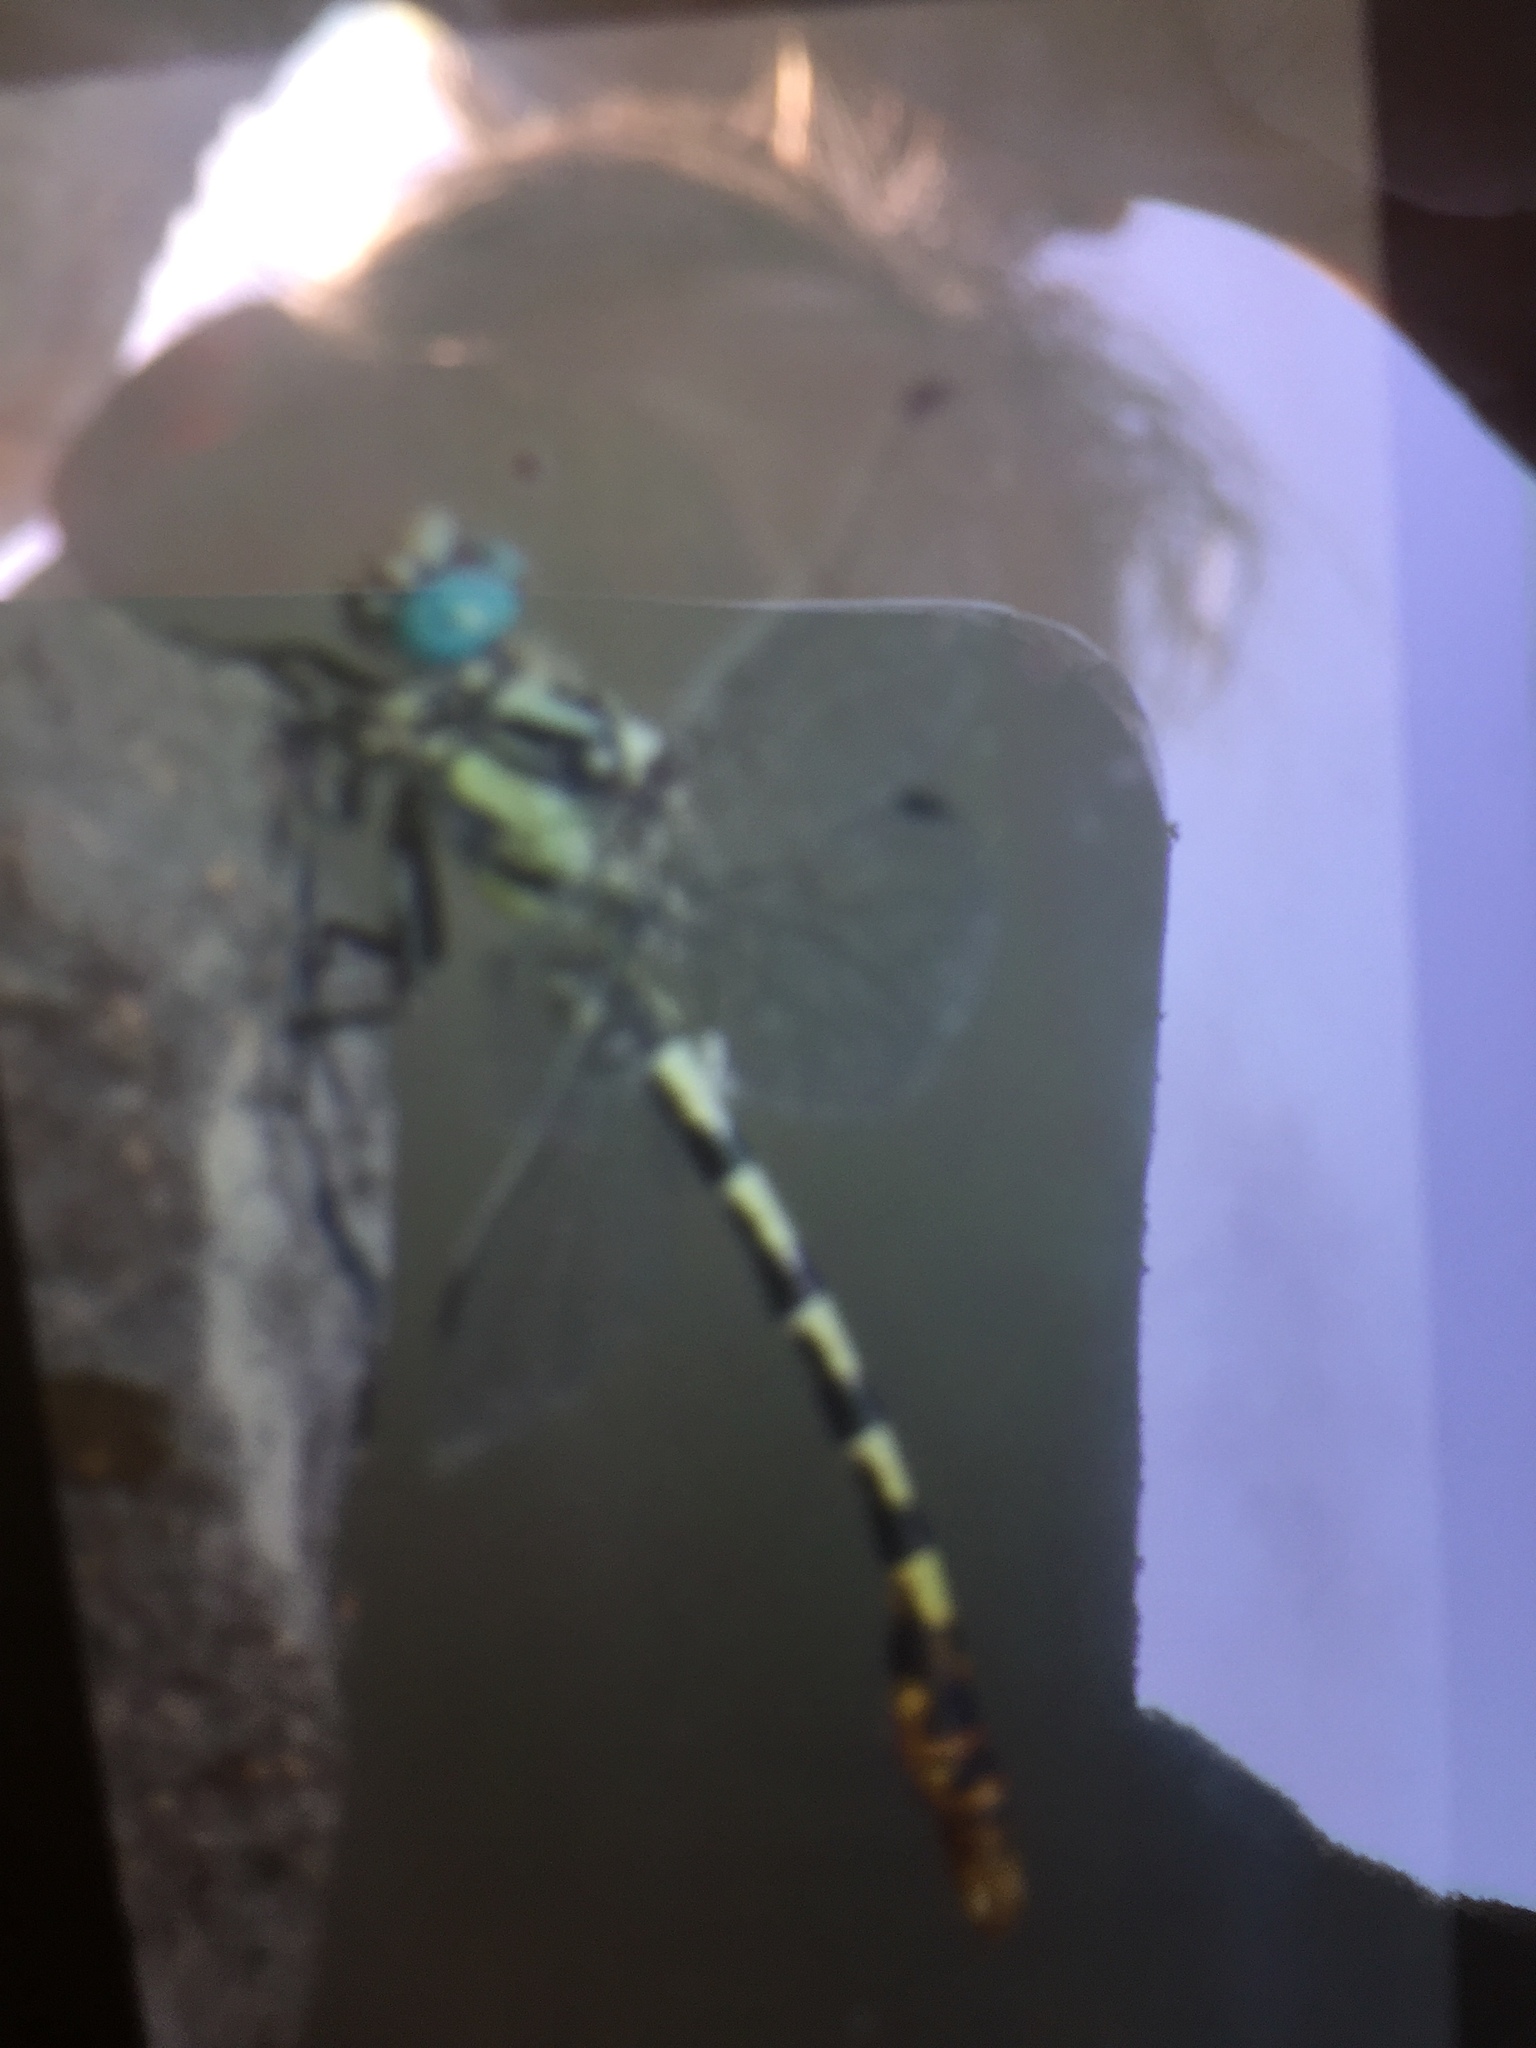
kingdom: Animalia
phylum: Arthropoda
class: Insecta
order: Odonata
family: Gomphidae
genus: Onychogomphus
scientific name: Onychogomphus assimilis
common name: Dark pincertail
